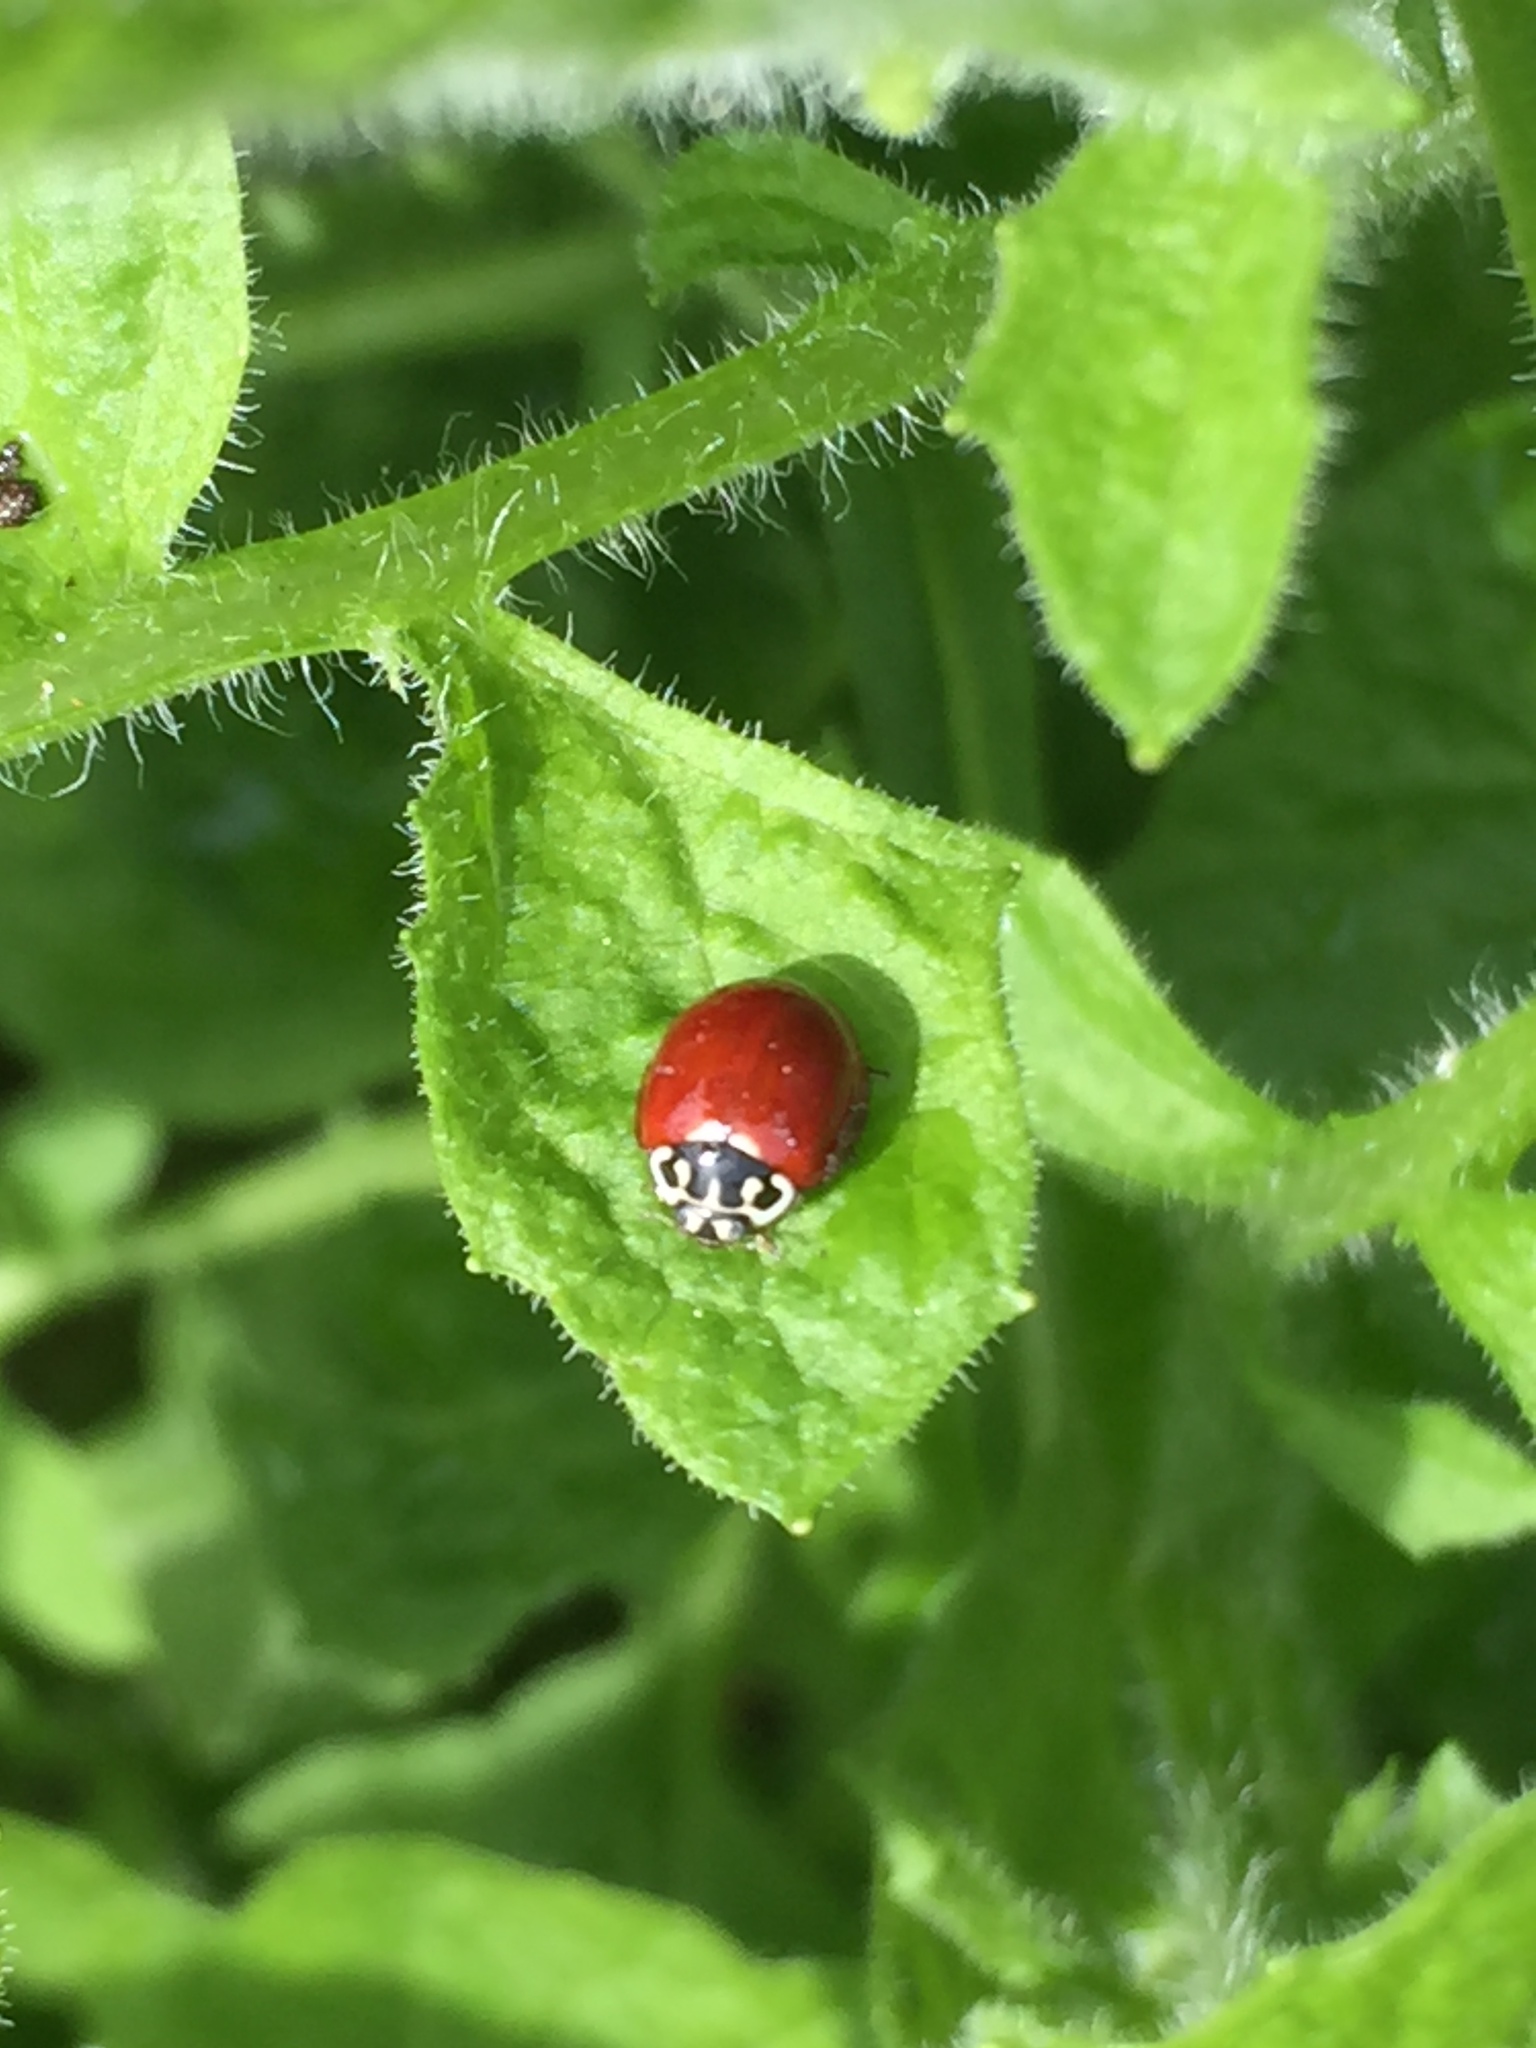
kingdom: Animalia
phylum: Arthropoda
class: Insecta
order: Coleoptera
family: Coccinellidae
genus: Cycloneda
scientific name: Cycloneda polita
